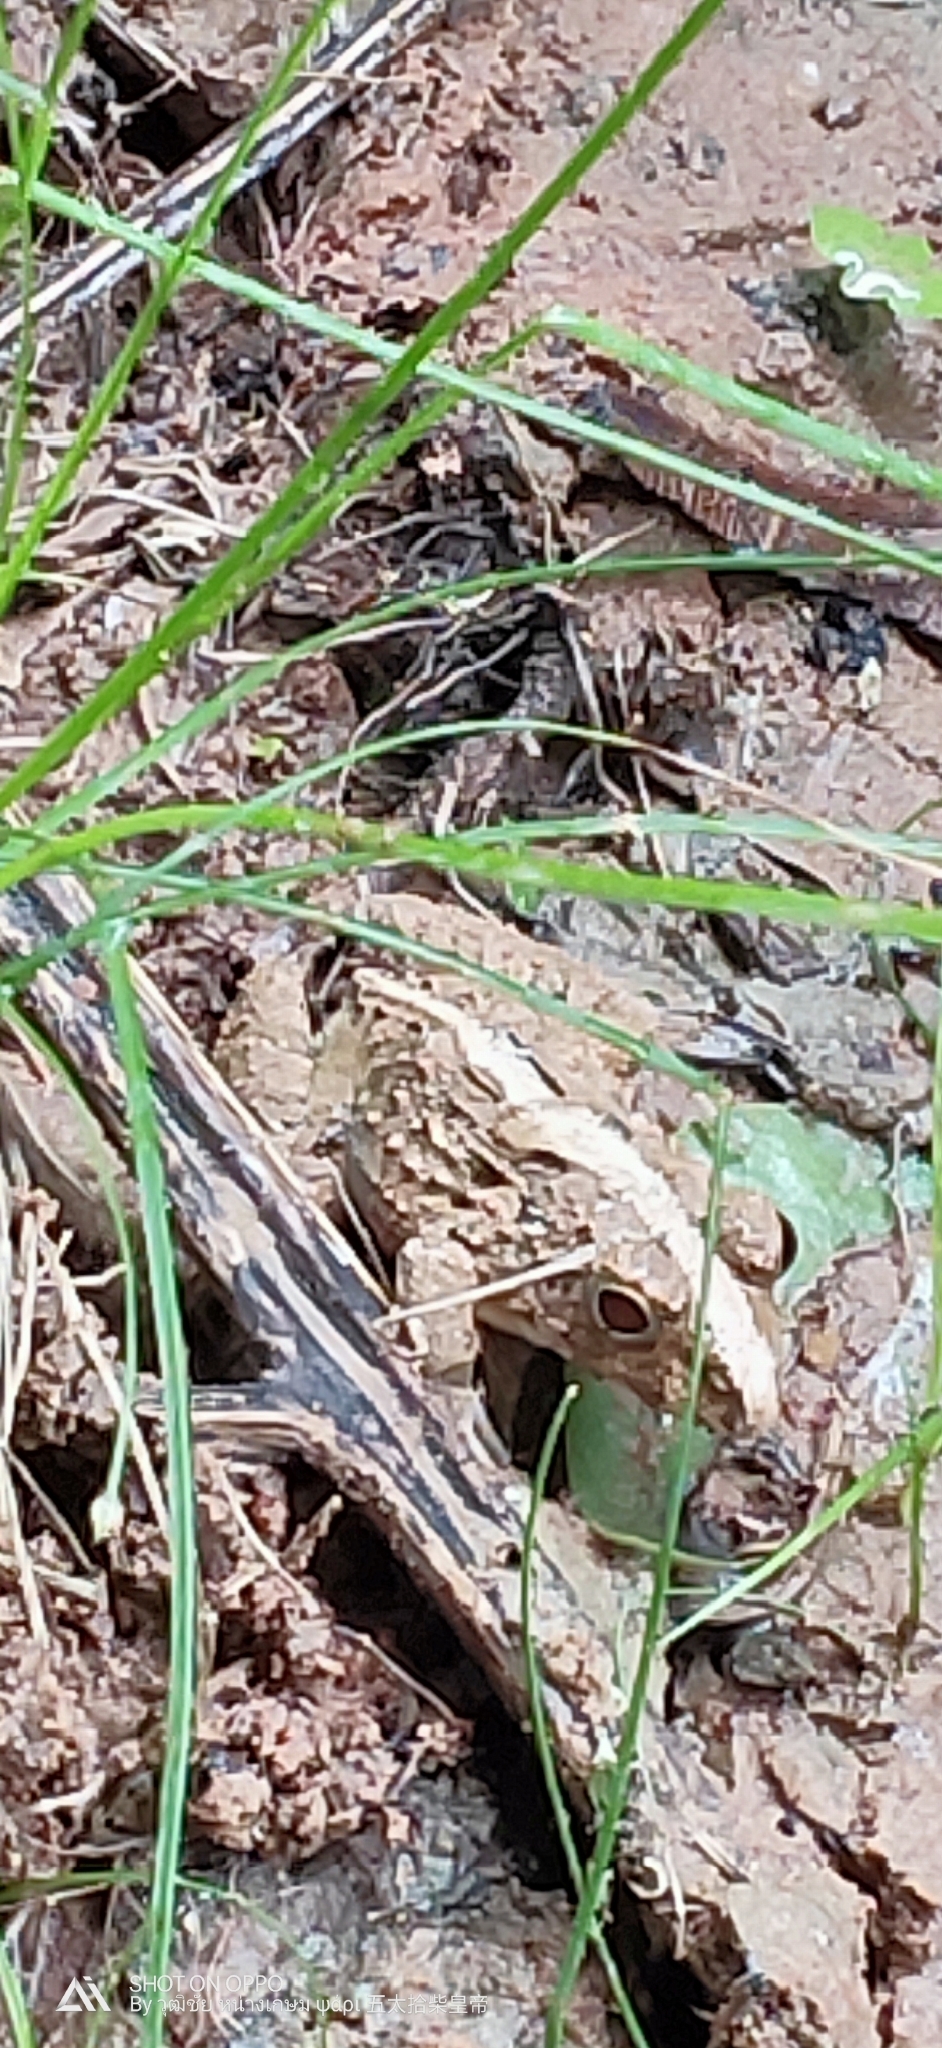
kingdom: Animalia
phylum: Chordata
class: Amphibia
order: Anura
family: Dicroglossidae
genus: Fejervarya
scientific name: Fejervarya limnocharis
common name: Asian grass frog/common pond frog/field frog/grass frog/indian rice frog
